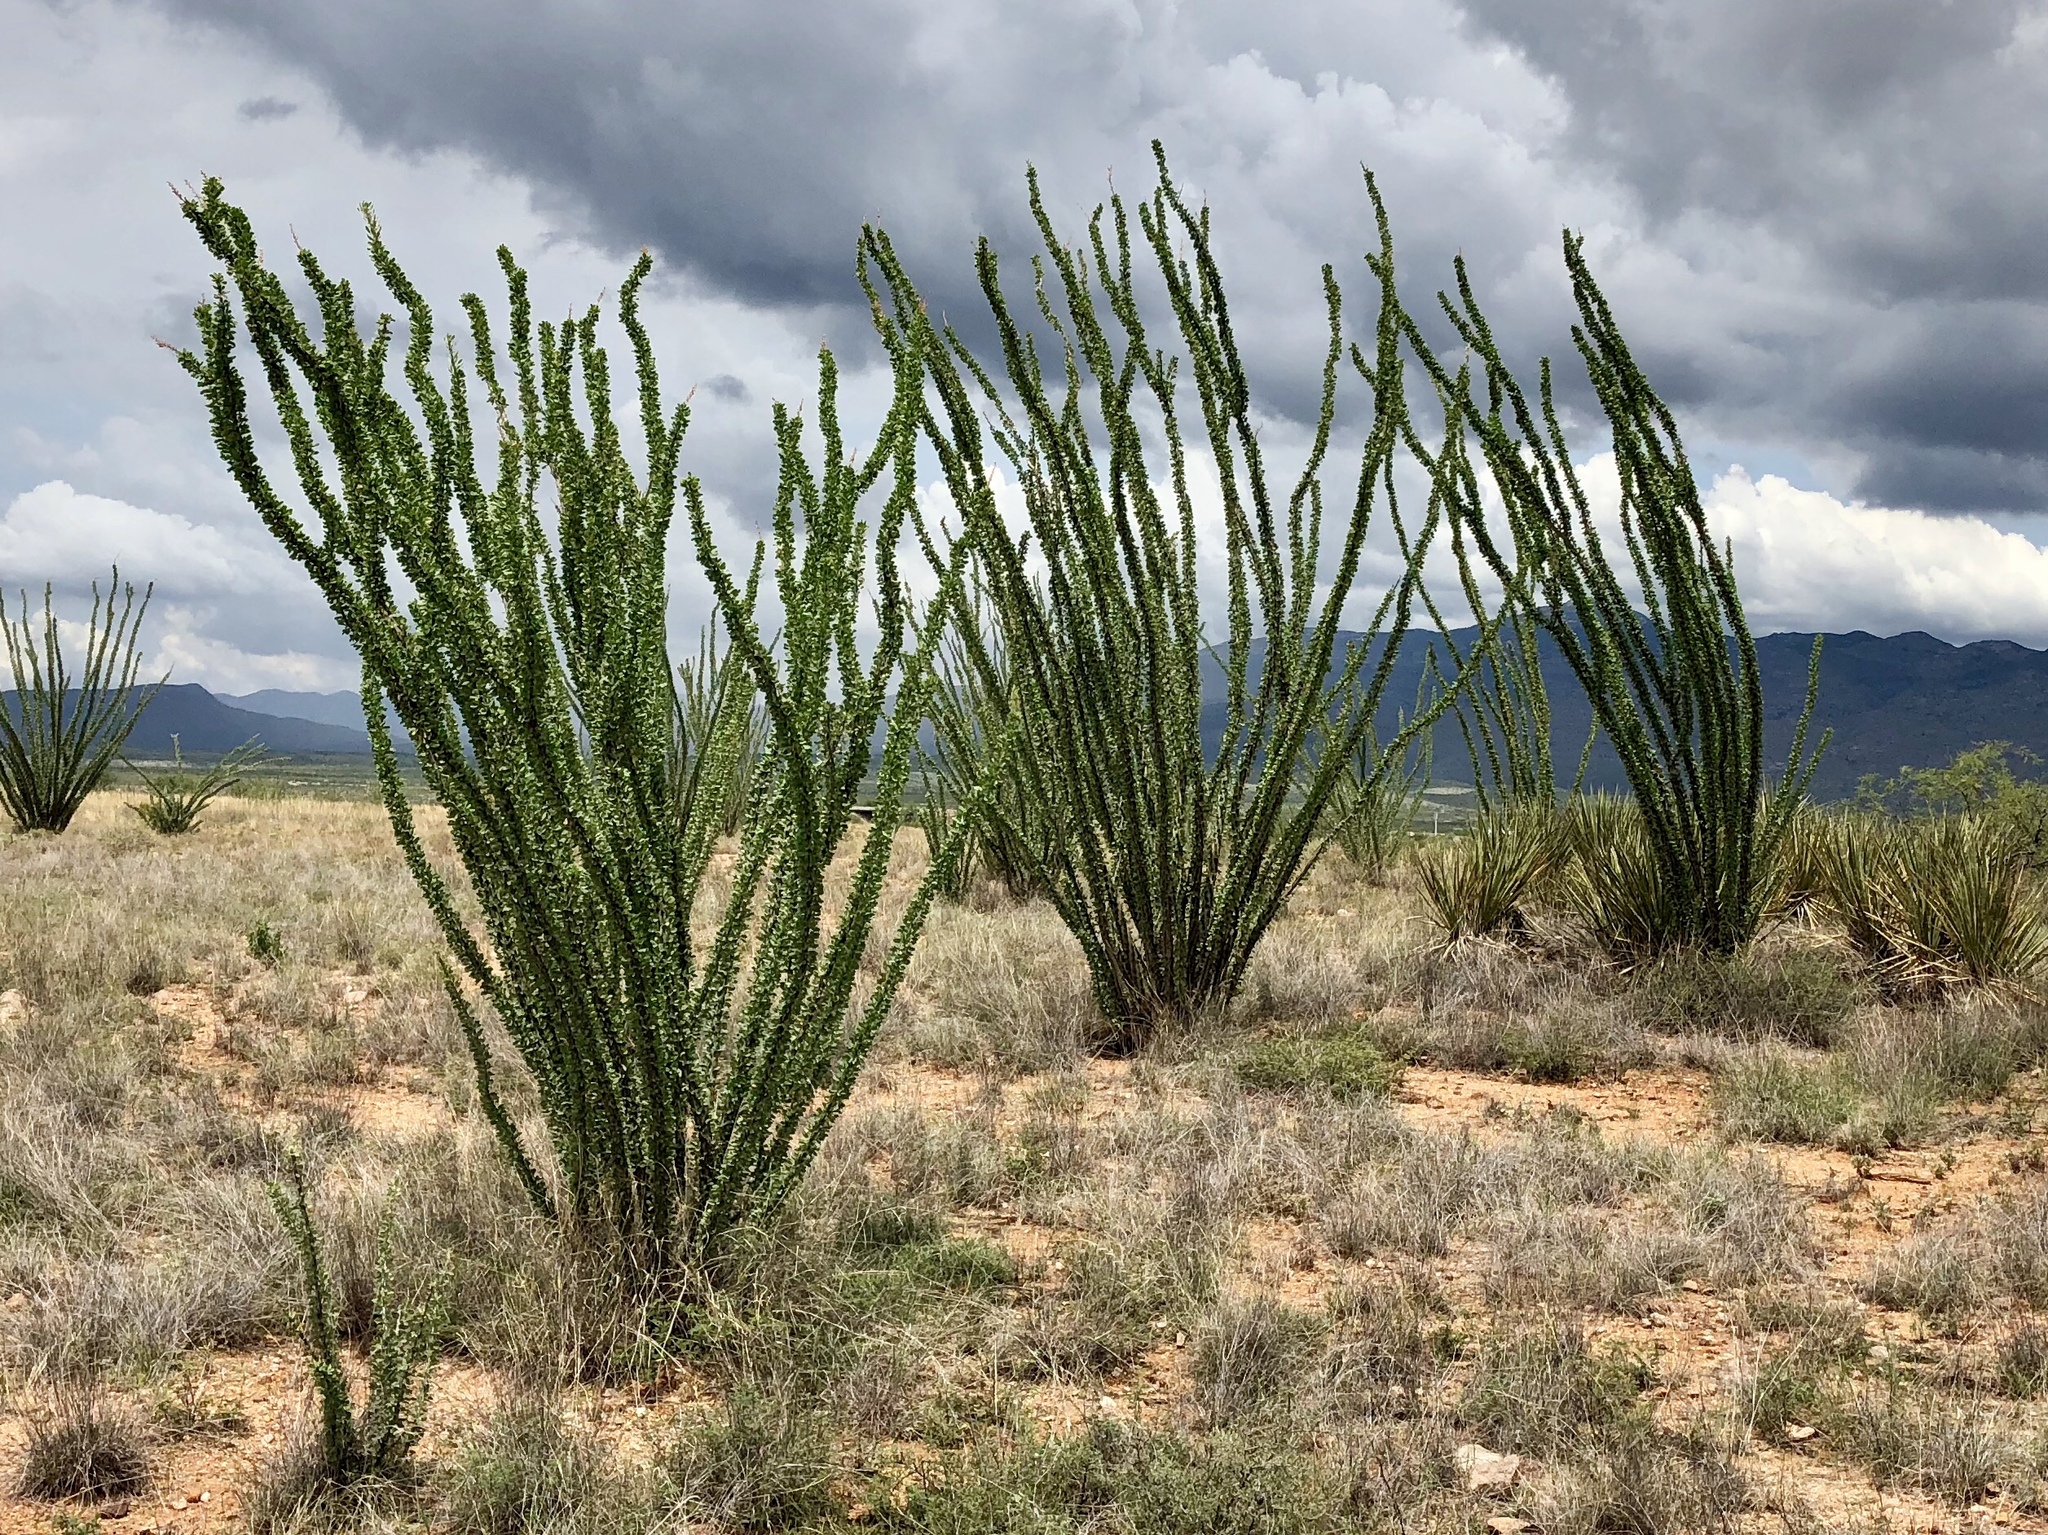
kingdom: Plantae
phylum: Tracheophyta
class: Magnoliopsida
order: Ericales
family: Fouquieriaceae
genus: Fouquieria
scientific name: Fouquieria splendens
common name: Vine-cactus
